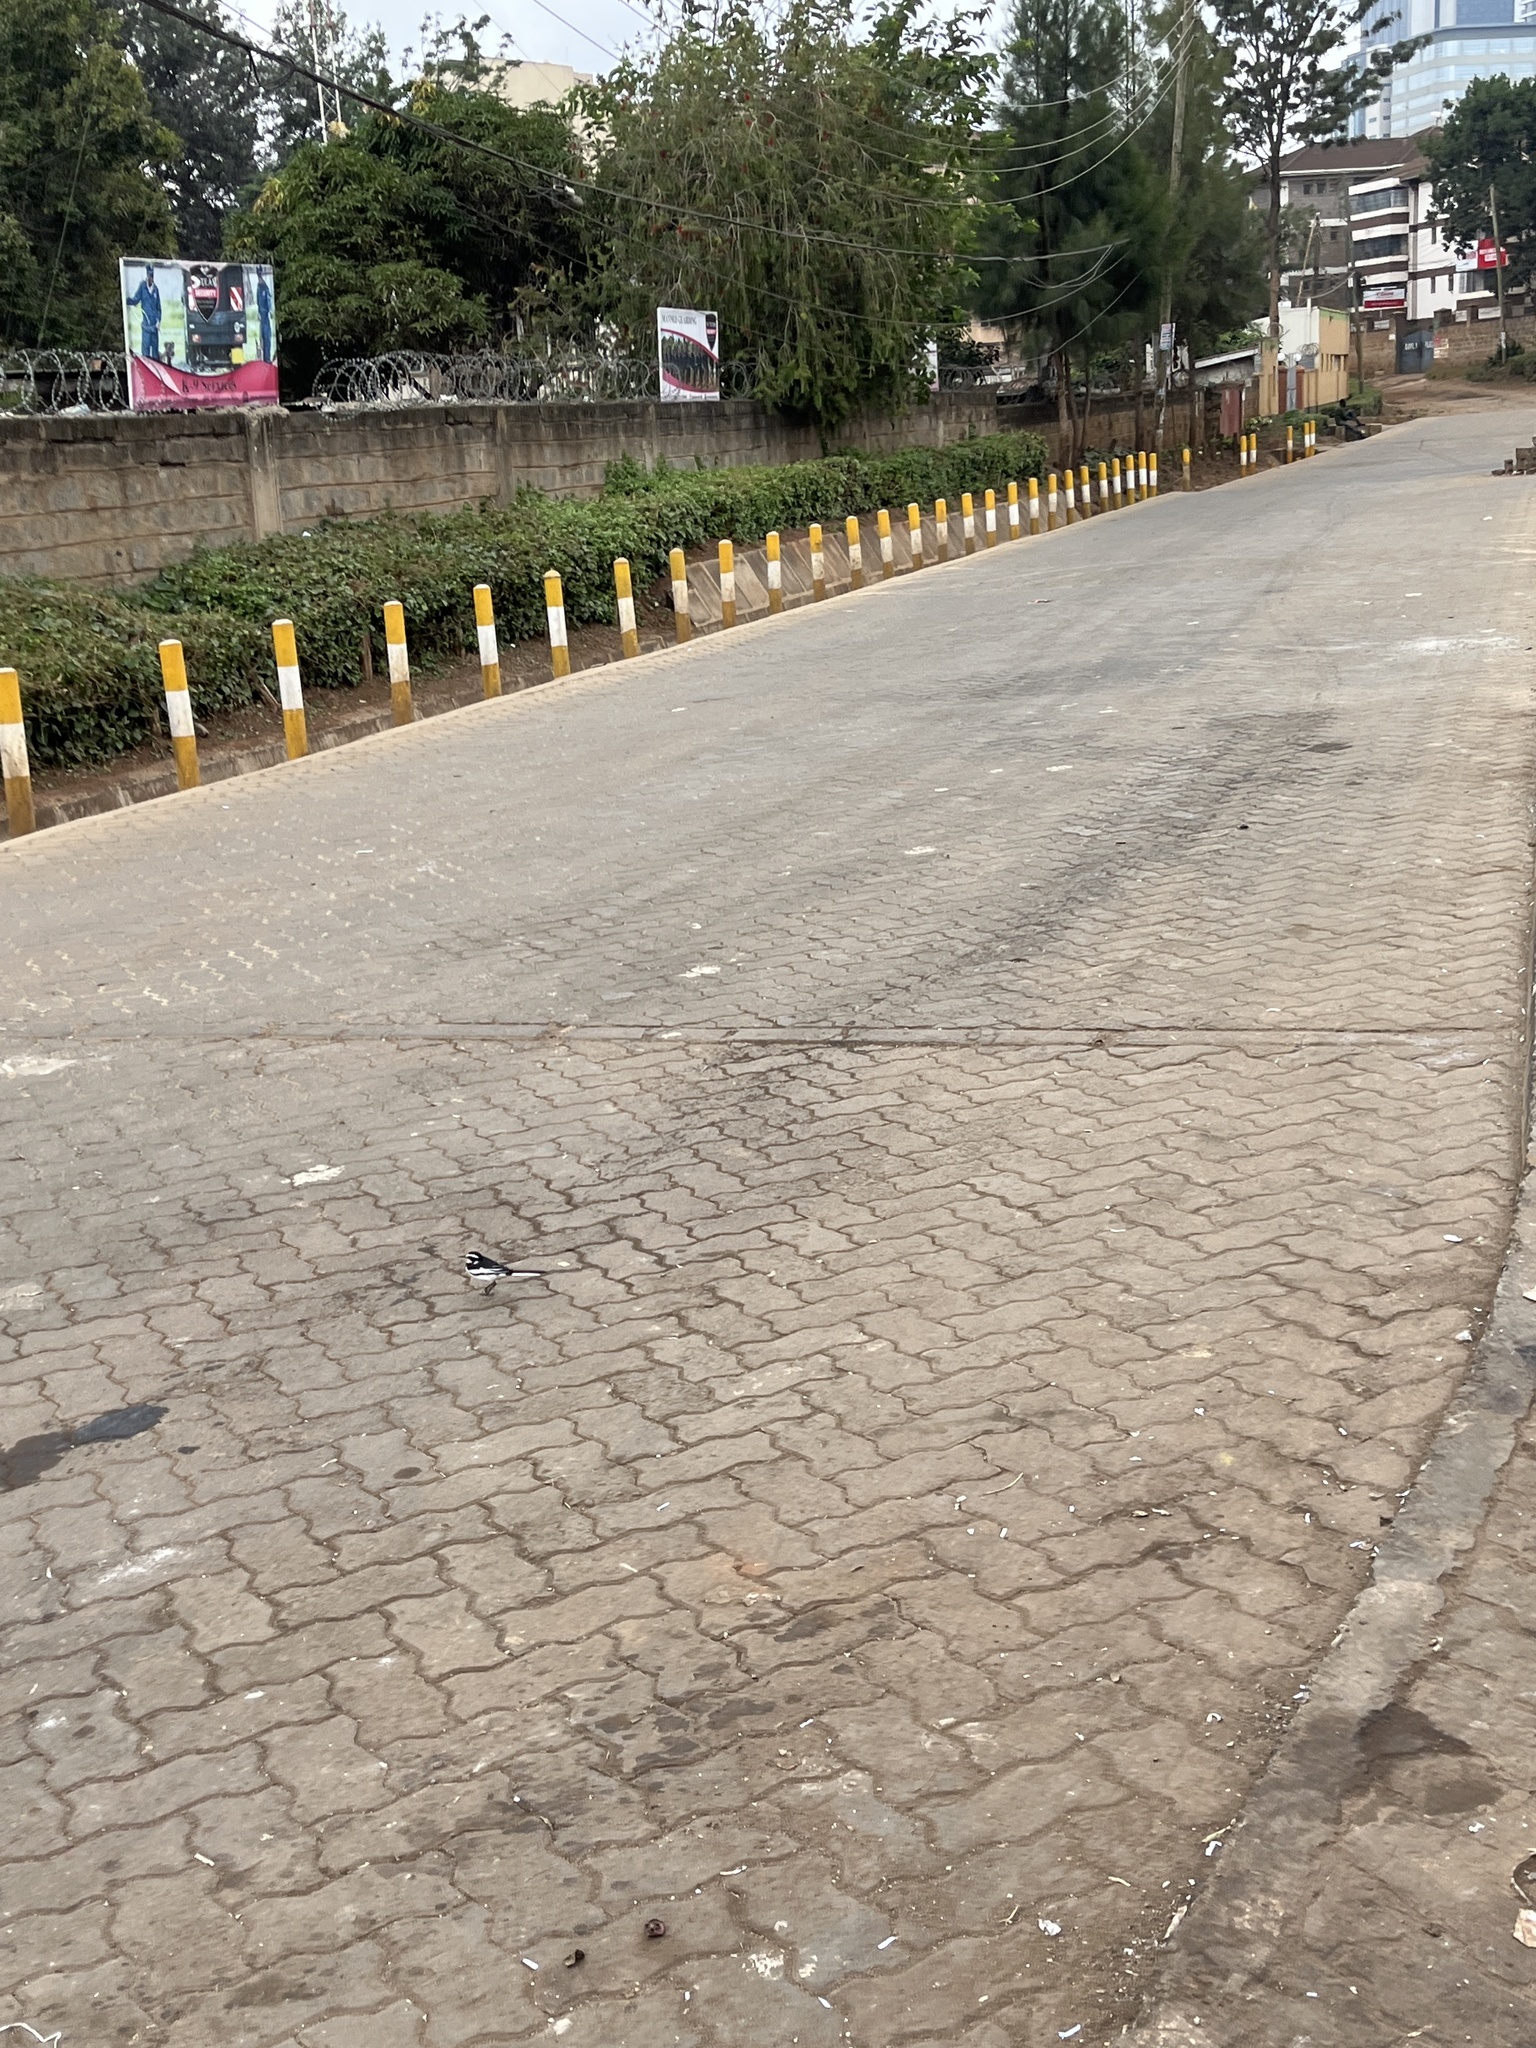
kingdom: Animalia
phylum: Chordata
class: Aves
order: Passeriformes
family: Motacillidae
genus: Motacilla
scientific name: Motacilla aguimp
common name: African pied wagtail
